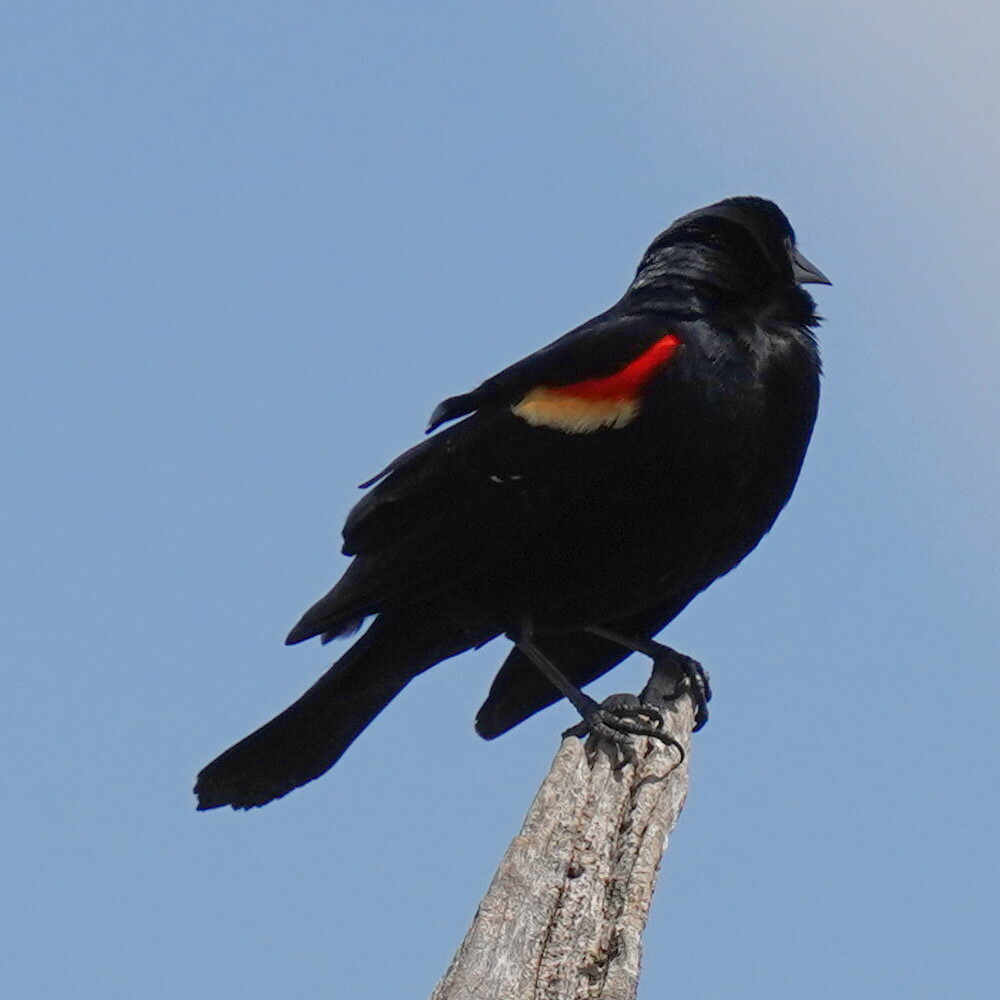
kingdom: Animalia
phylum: Chordata
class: Aves
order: Passeriformes
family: Icteridae
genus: Agelaius
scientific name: Agelaius phoeniceus
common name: Red-winged blackbird
